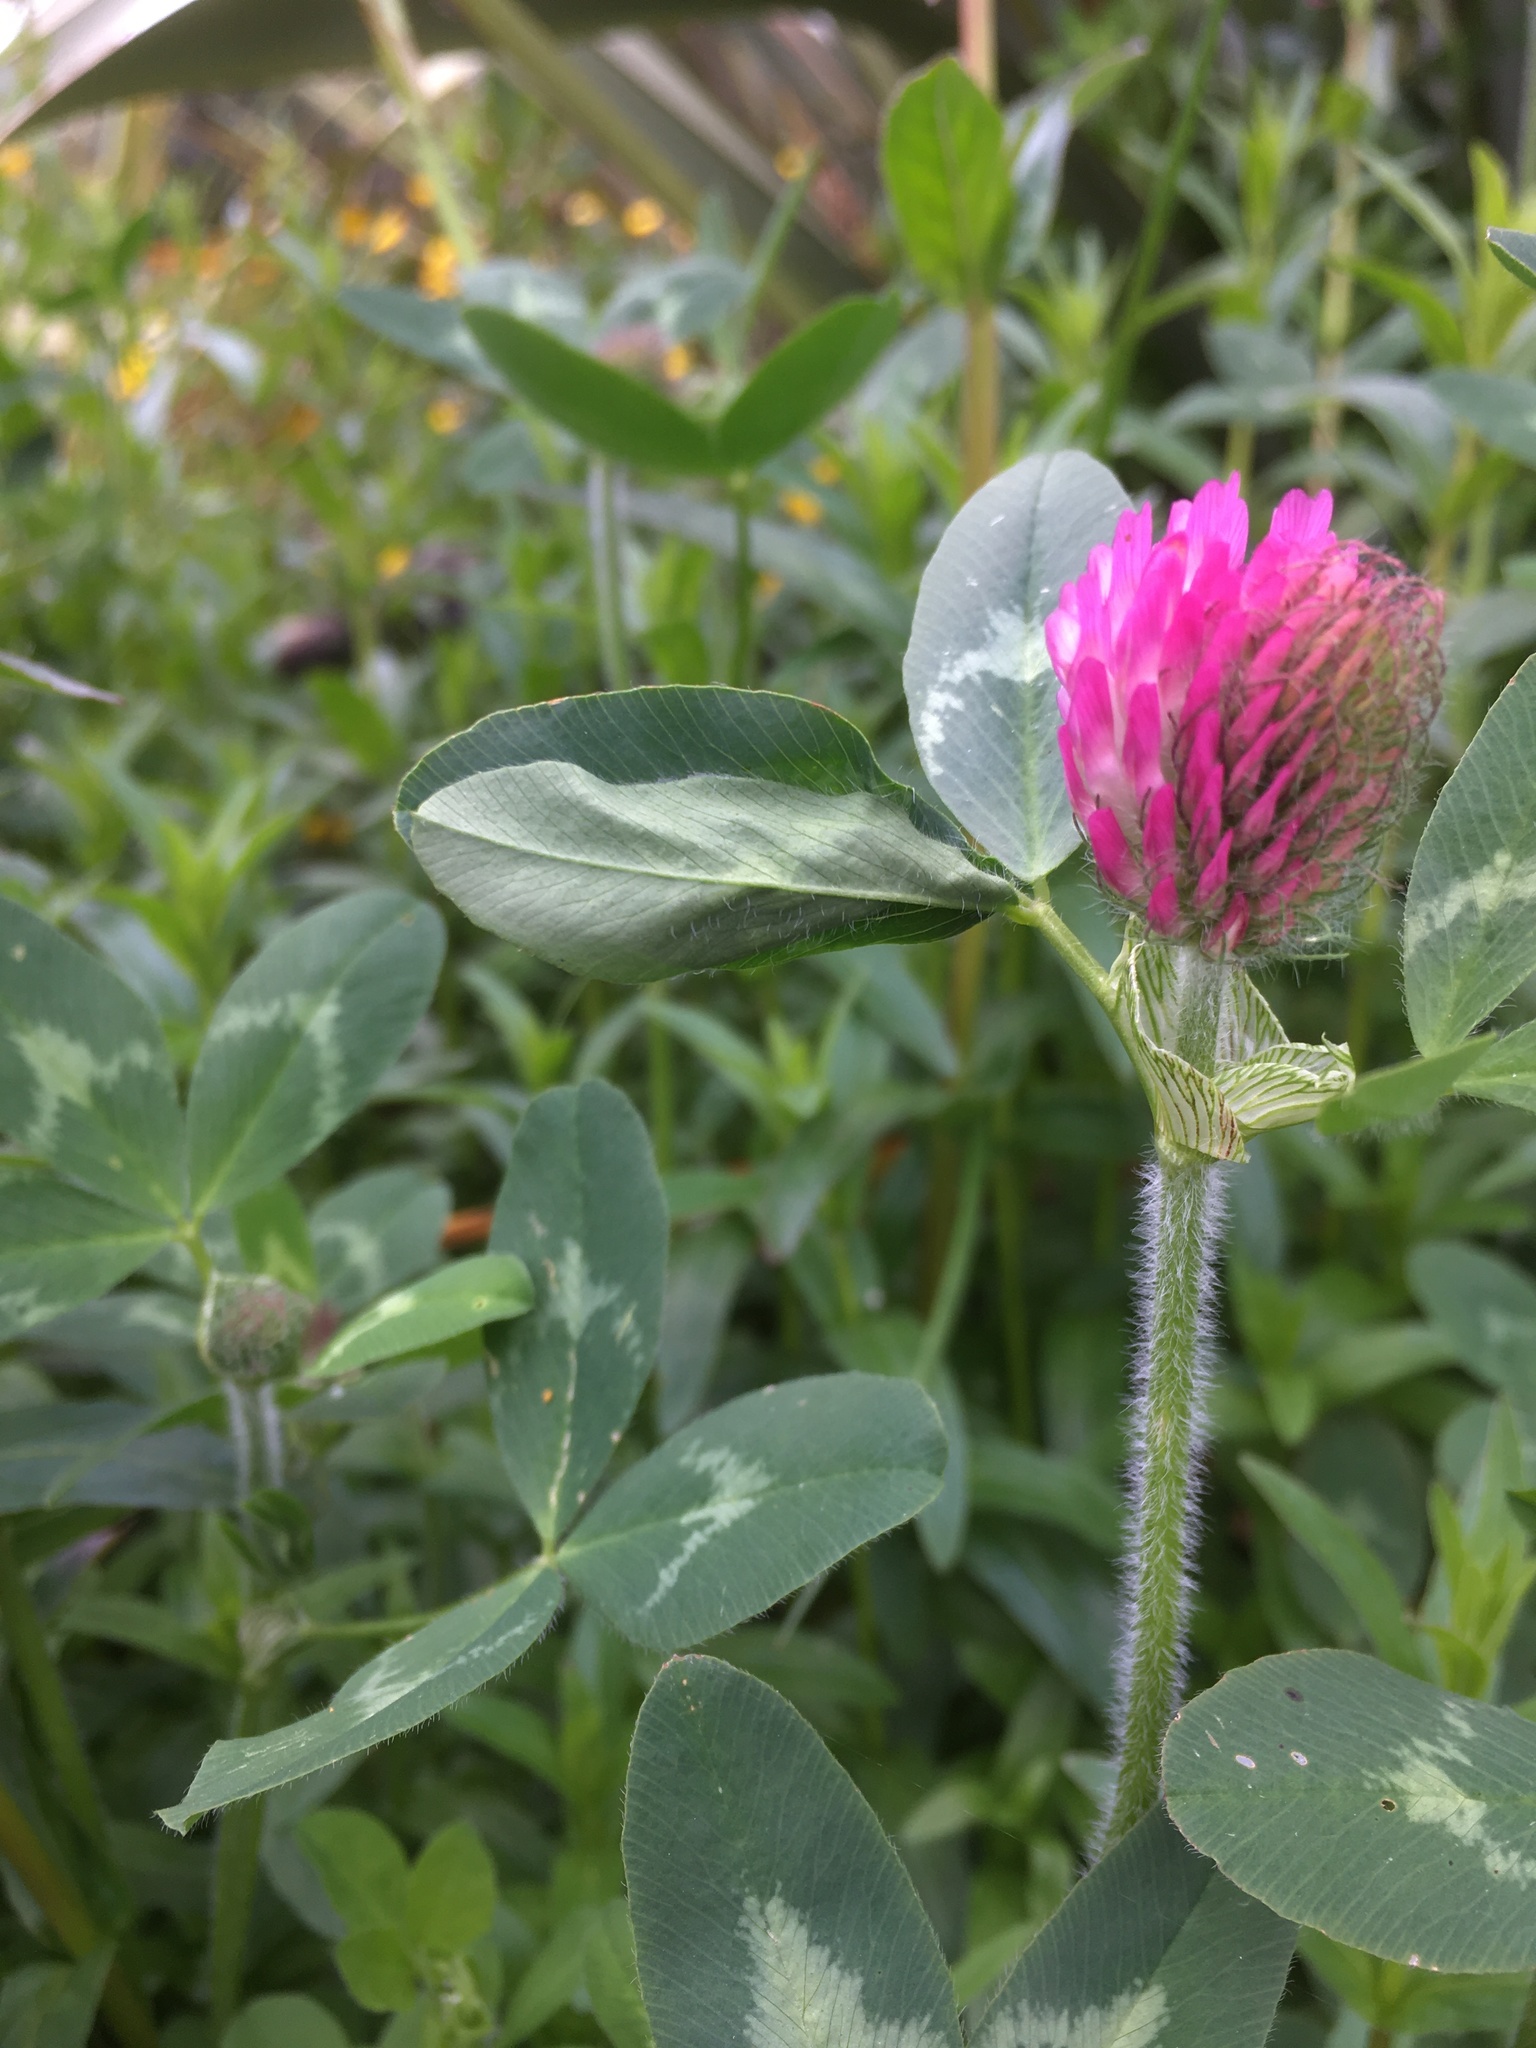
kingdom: Plantae
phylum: Tracheophyta
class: Magnoliopsida
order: Fabales
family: Fabaceae
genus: Trifolium
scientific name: Trifolium pratense
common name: Red clover
